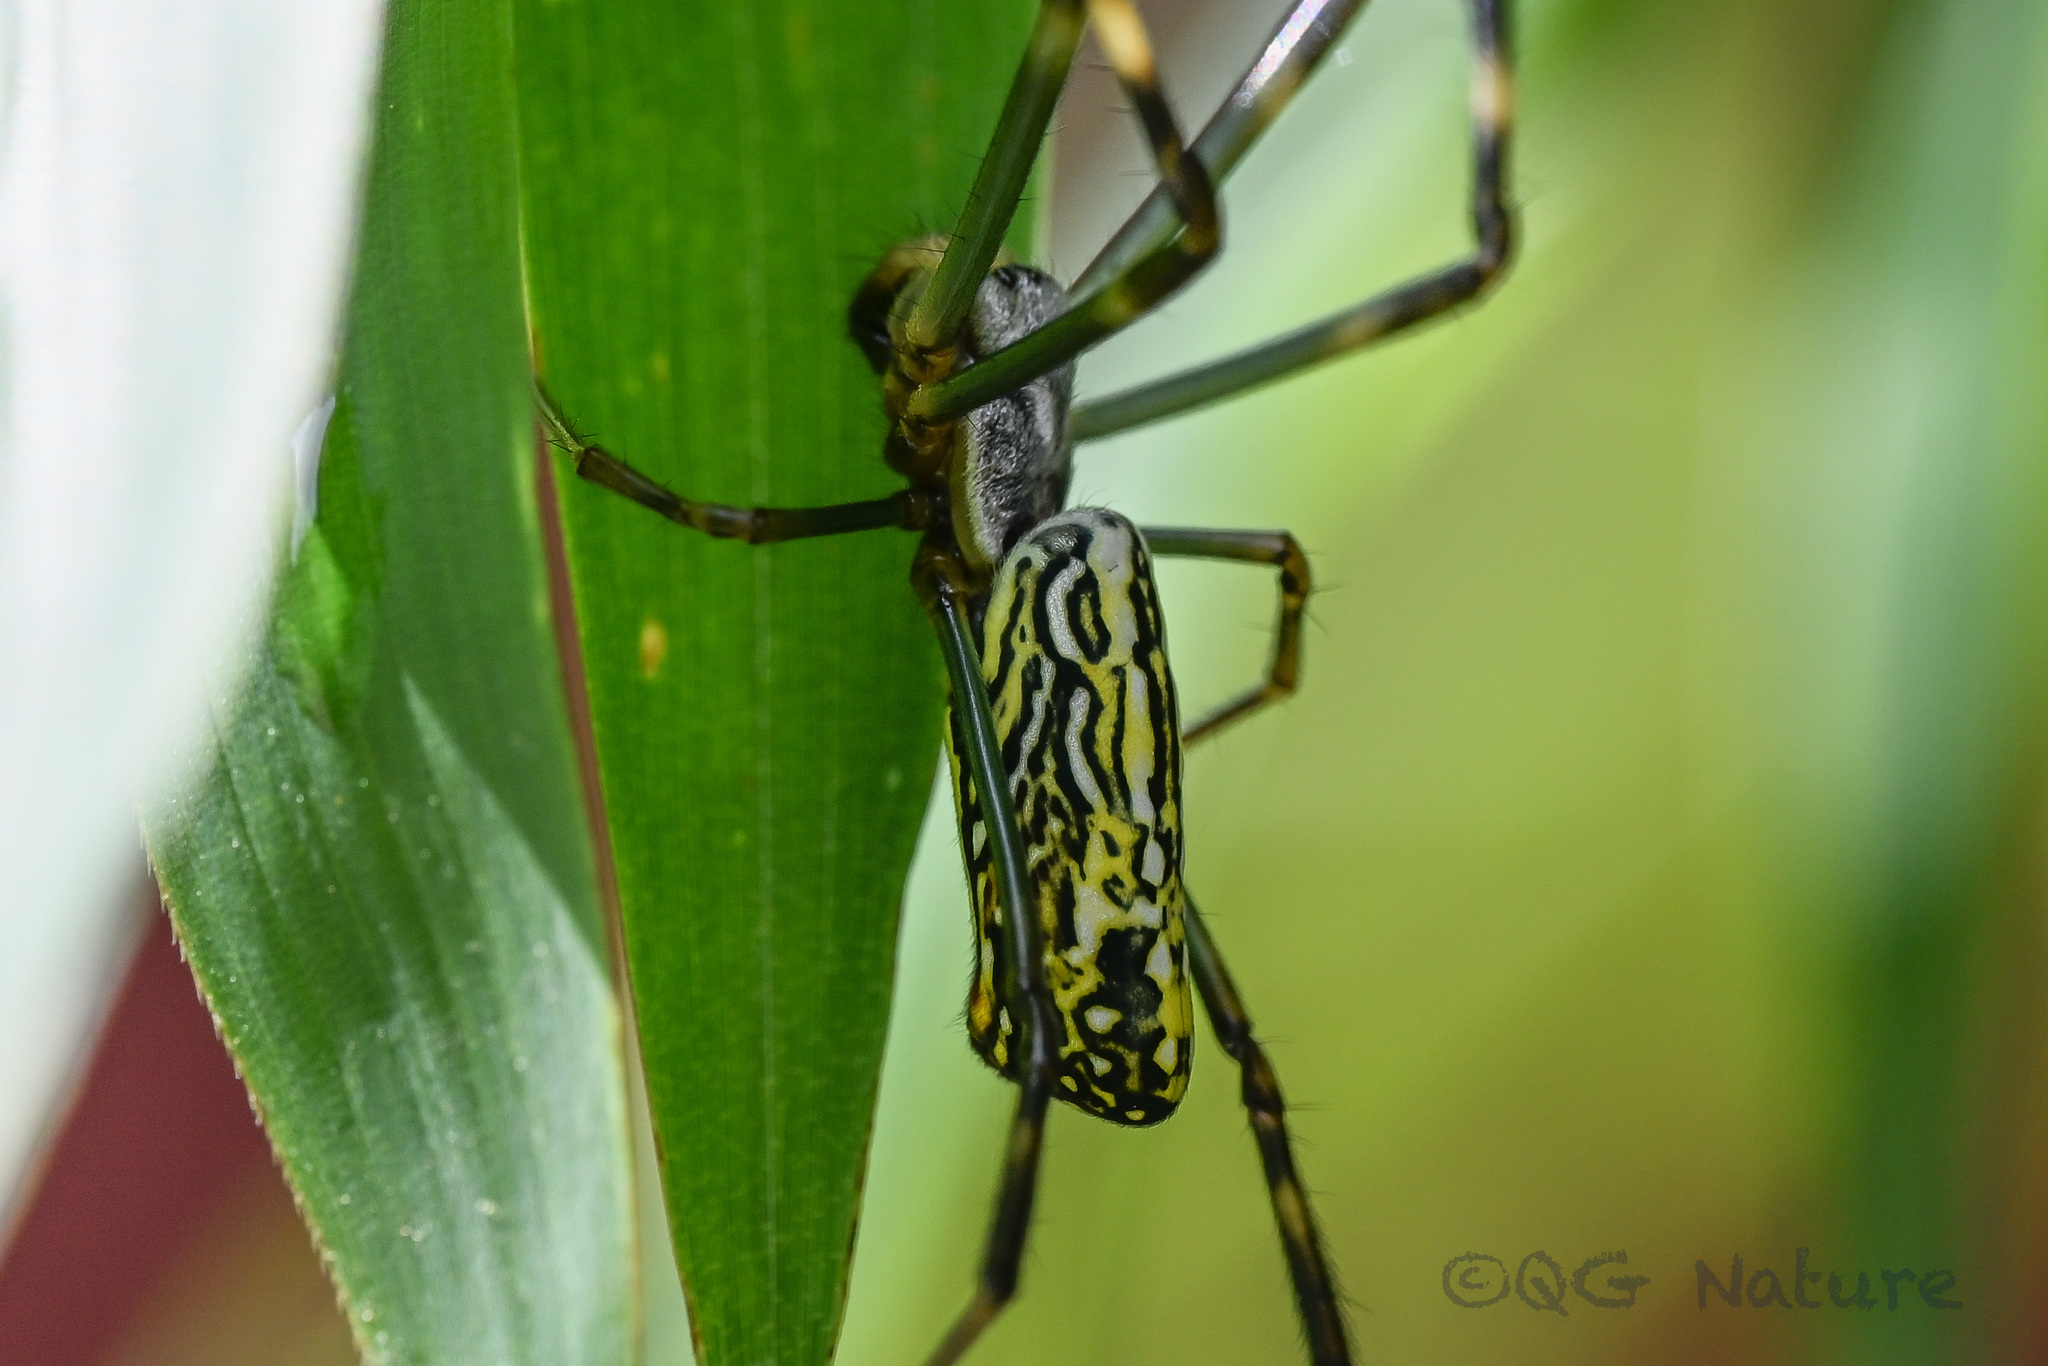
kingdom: Animalia
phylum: Arthropoda
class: Arachnida
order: Araneae
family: Araneidae
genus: Trichonephila
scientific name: Trichonephila clavata
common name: Jorō spider
